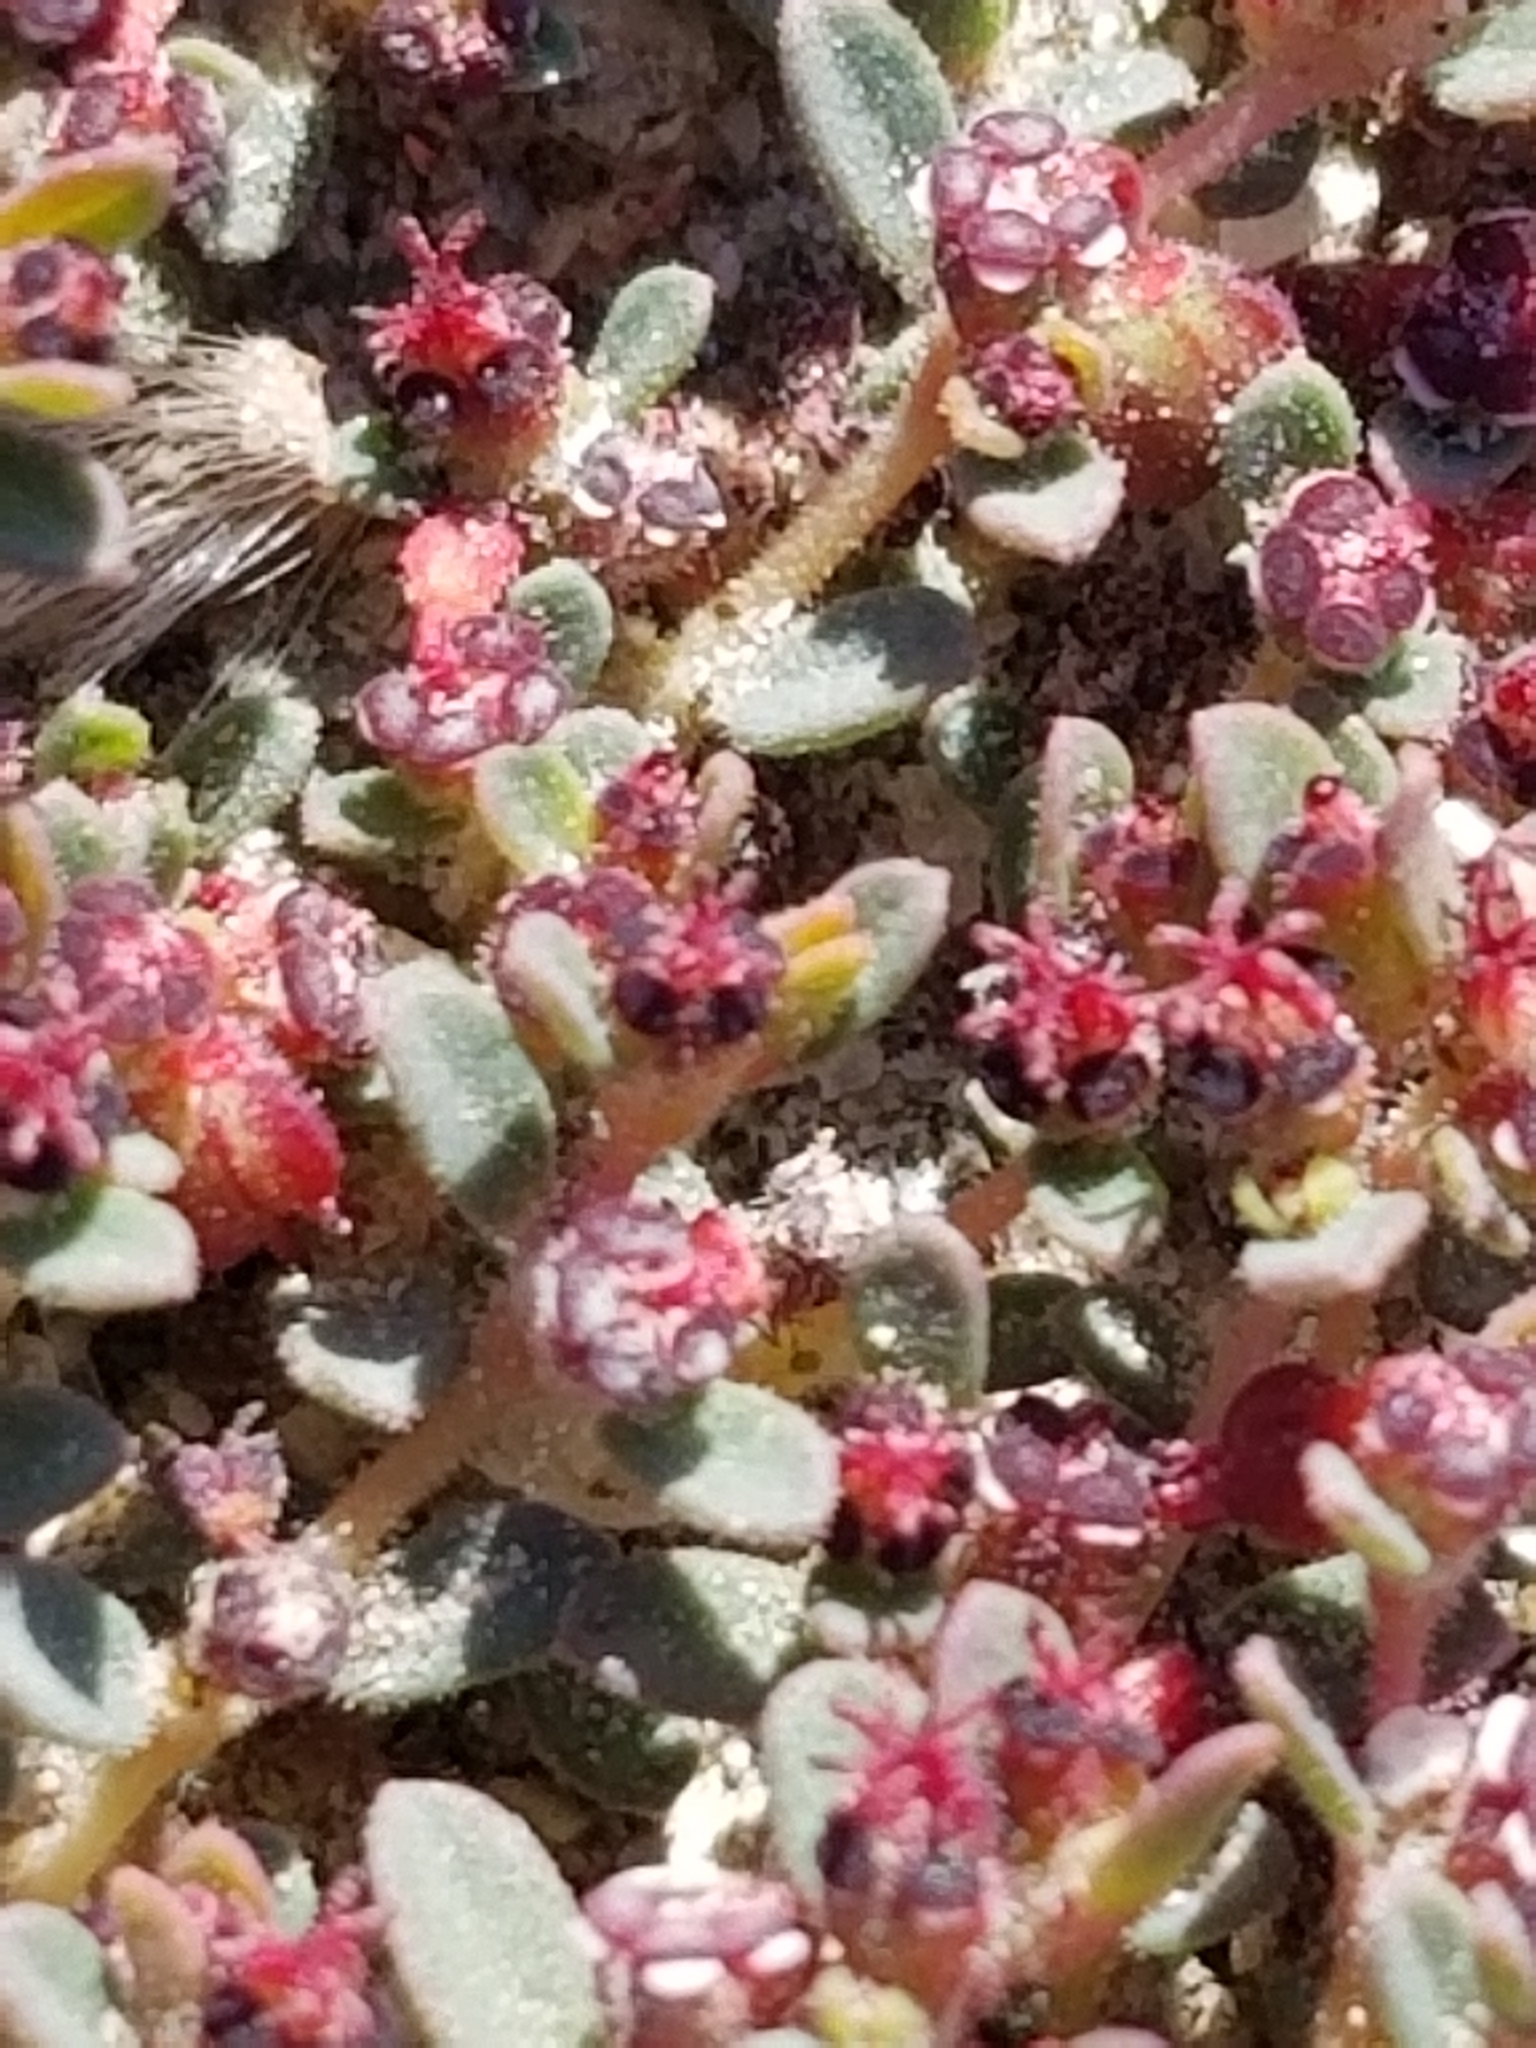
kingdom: Plantae
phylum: Tracheophyta
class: Magnoliopsida
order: Malpighiales
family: Euphorbiaceae
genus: Euphorbia
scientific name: Euphorbia polycarpa
